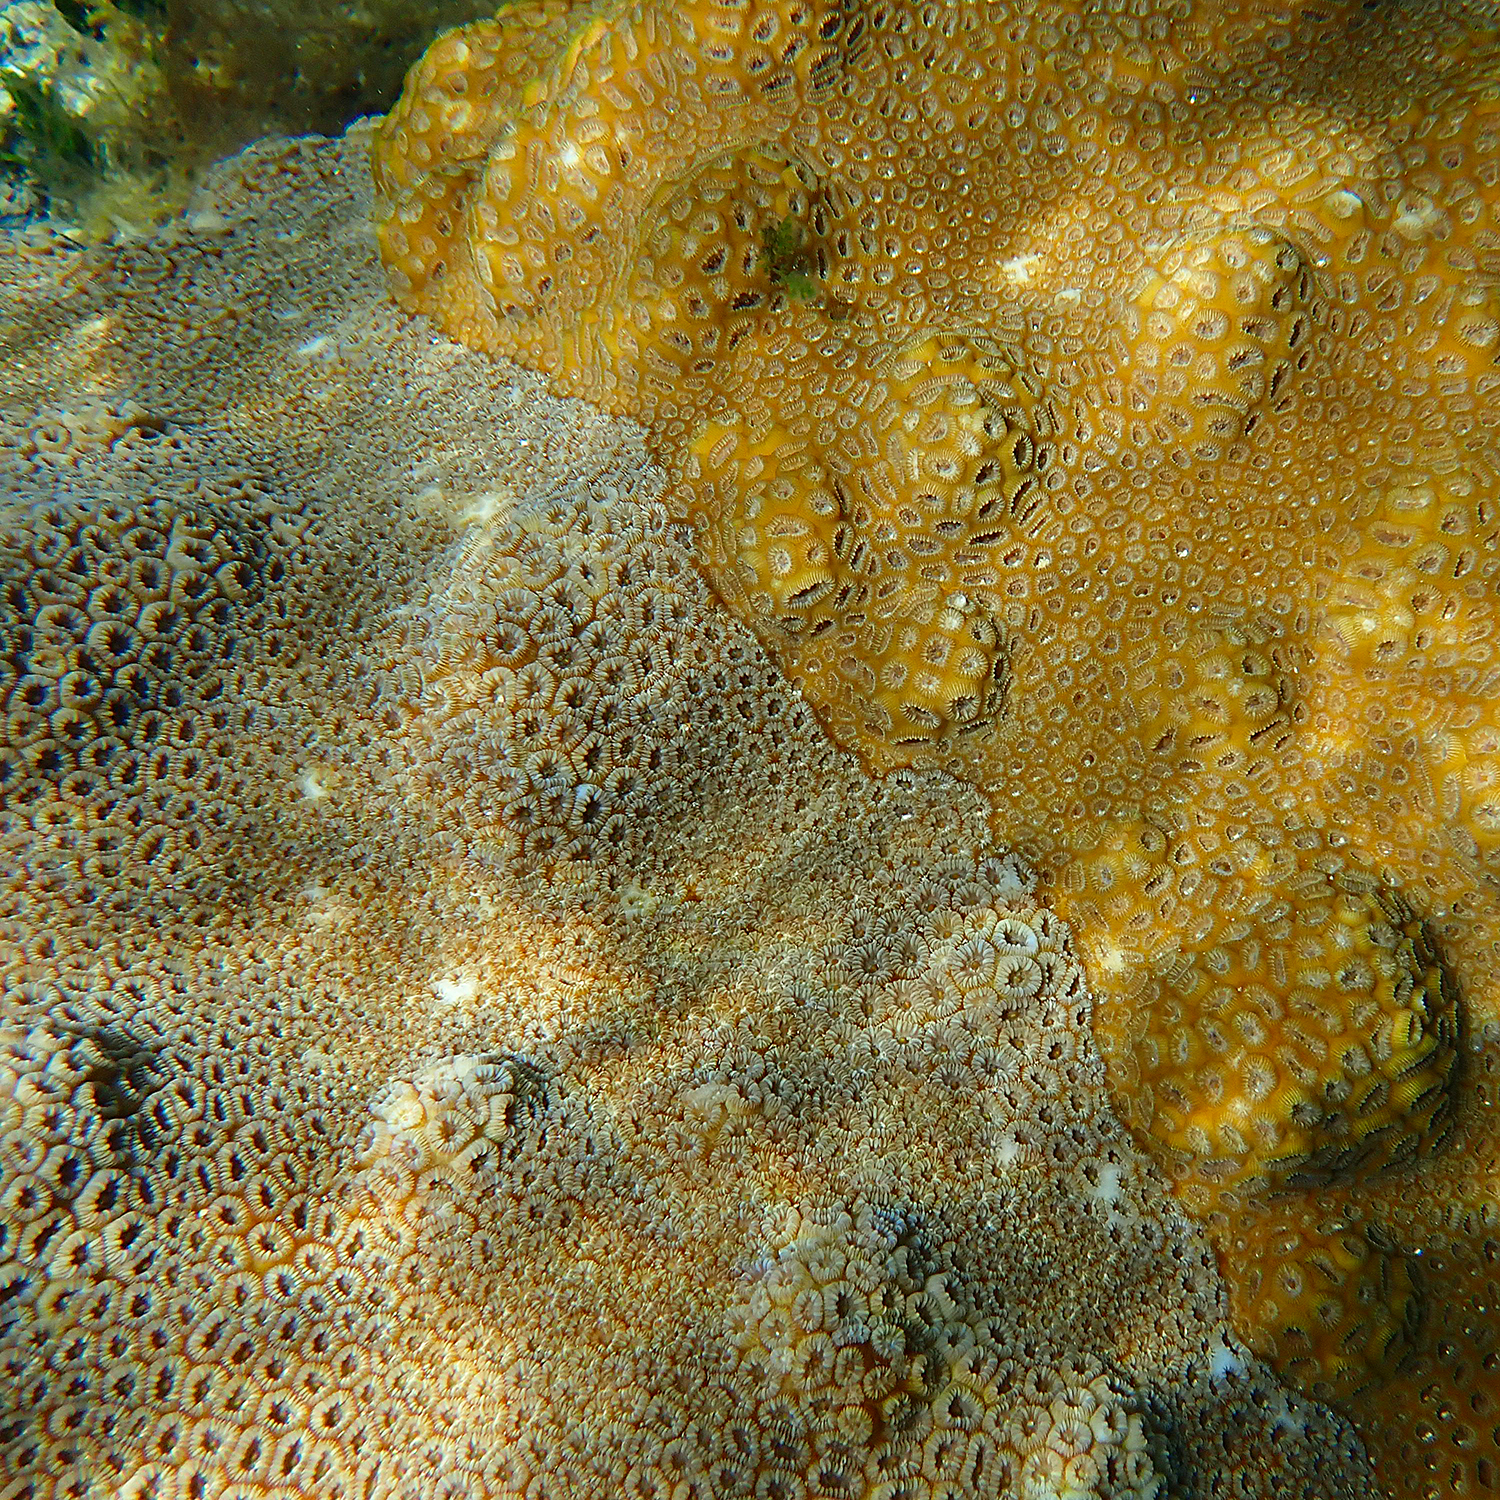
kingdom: Animalia
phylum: Cnidaria
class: Anthozoa
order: Scleractinia
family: Merulinidae
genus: Astrea
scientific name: Astrea curta
